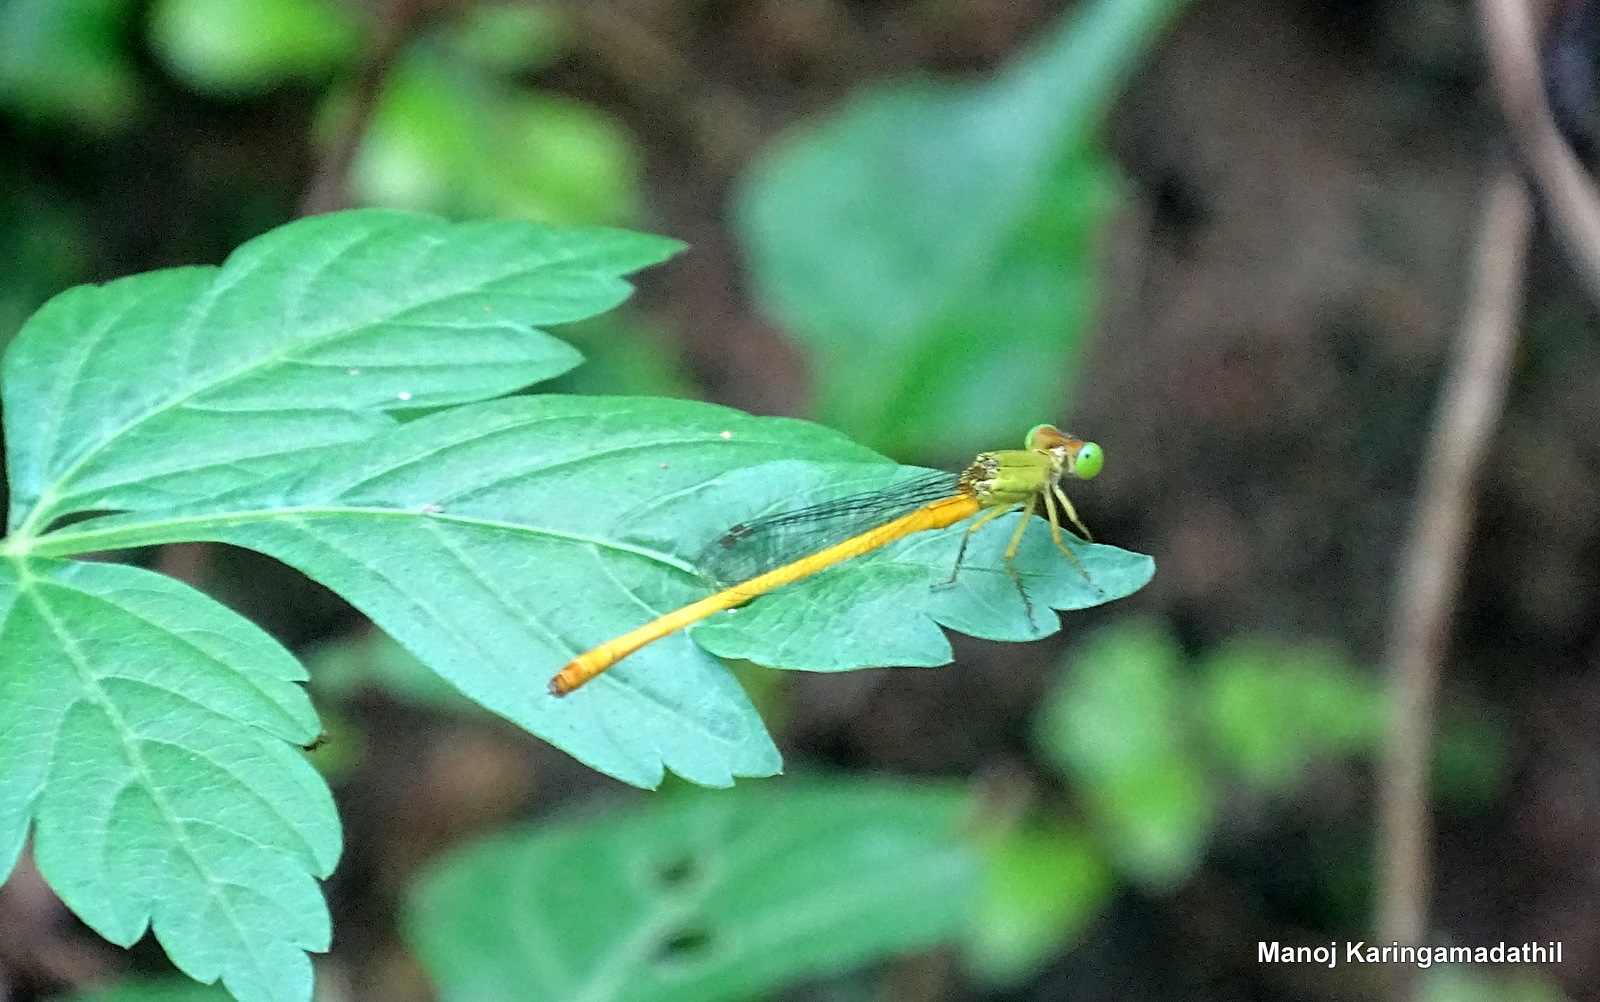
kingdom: Animalia
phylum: Arthropoda
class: Insecta
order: Odonata
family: Coenagrionidae
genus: Ceriagrion
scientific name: Ceriagrion coromandelianum
